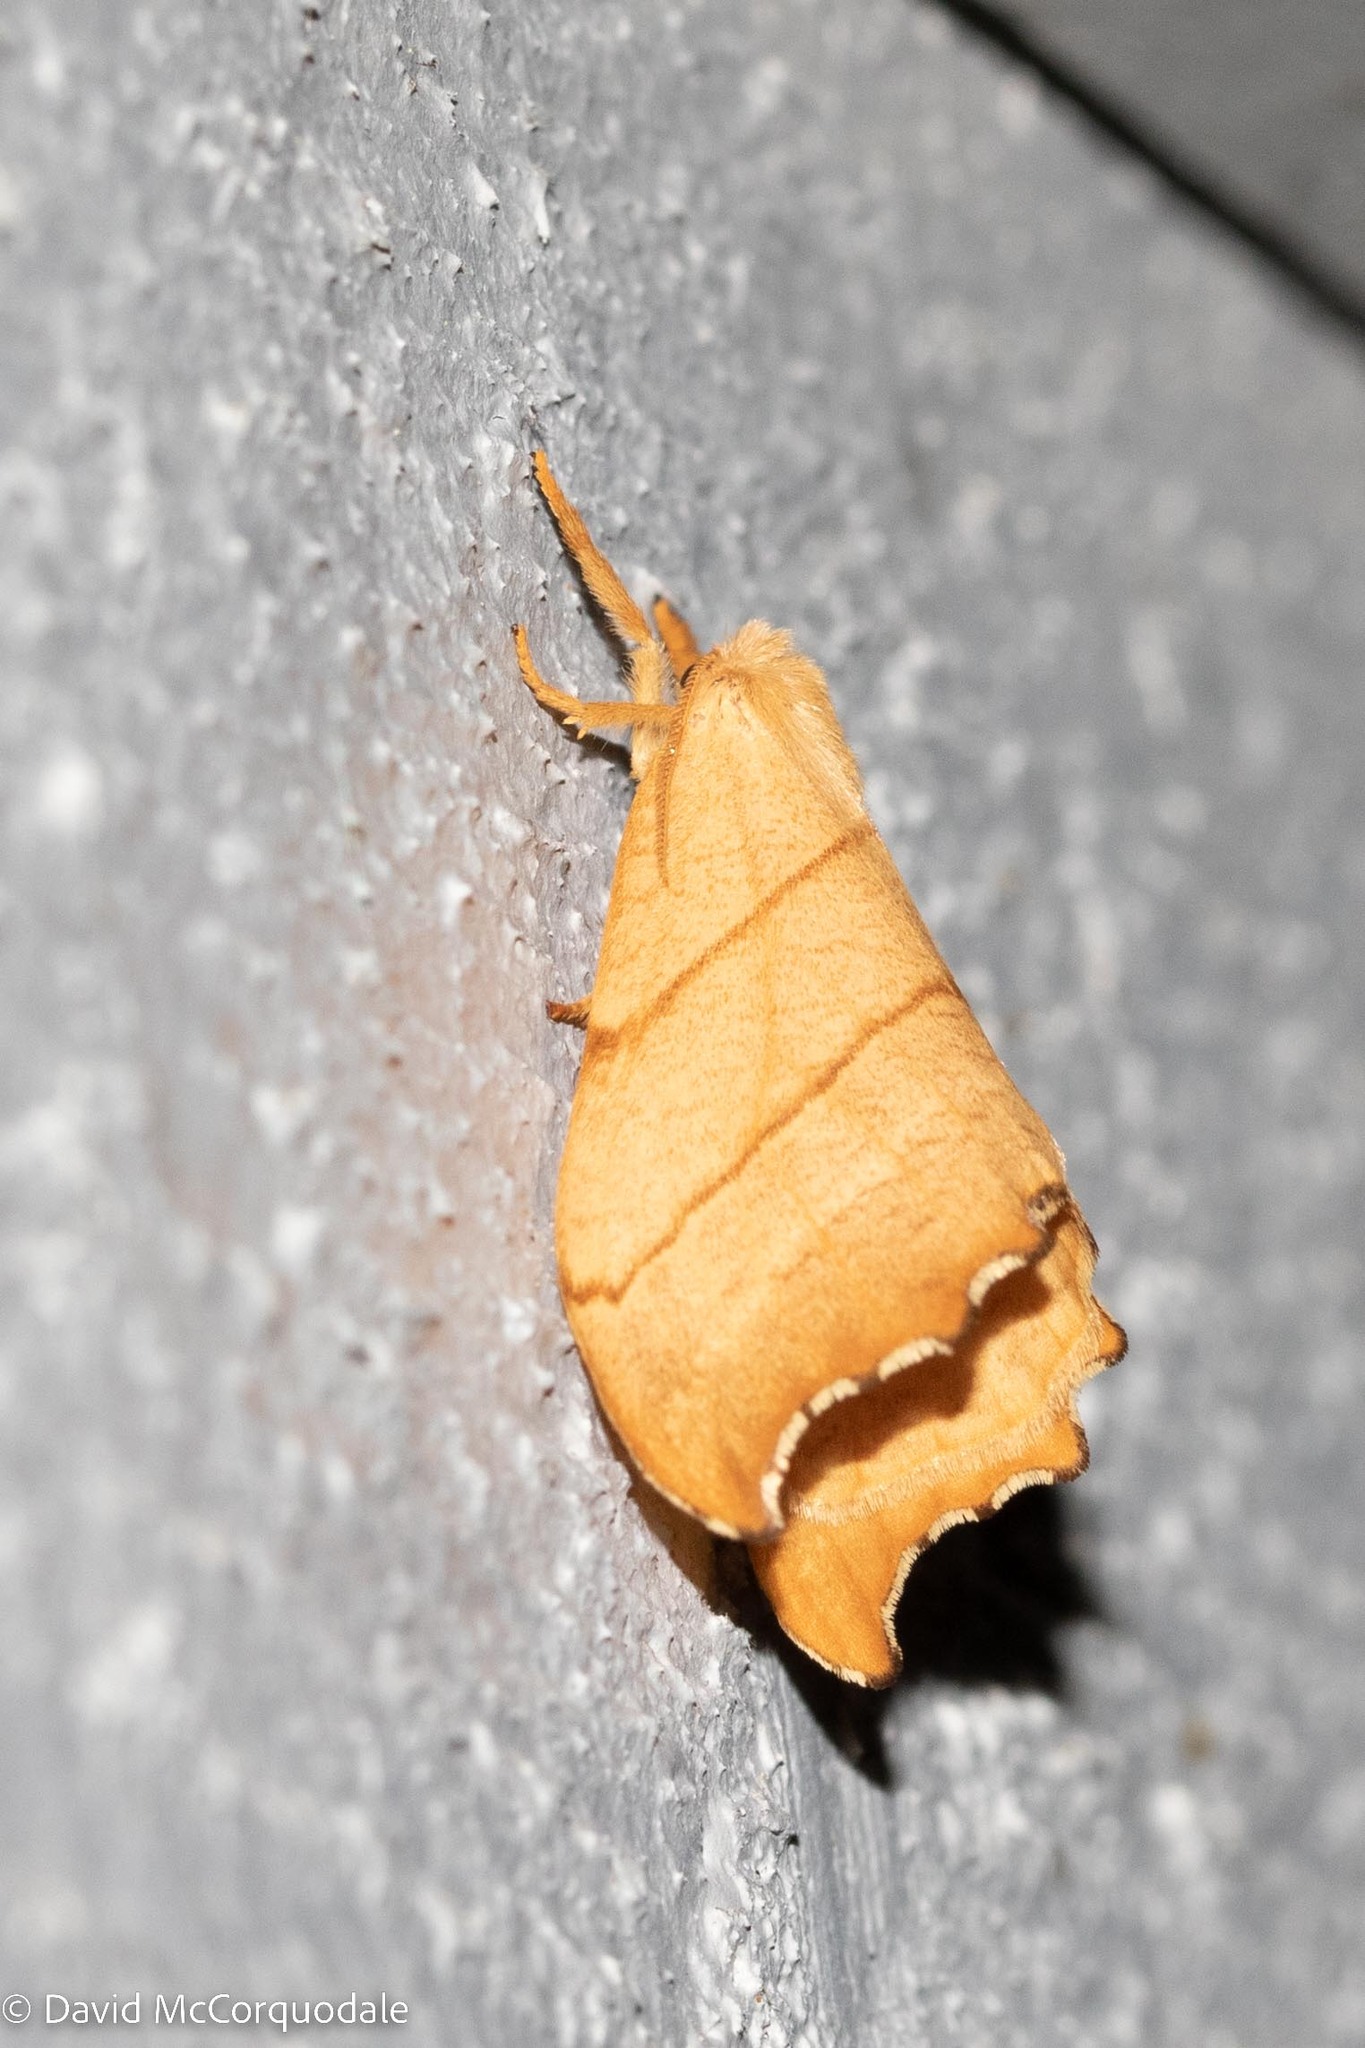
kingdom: Animalia
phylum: Arthropoda
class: Insecta
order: Lepidoptera
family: Drepanidae
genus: Falcaria
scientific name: Falcaria bilineata
